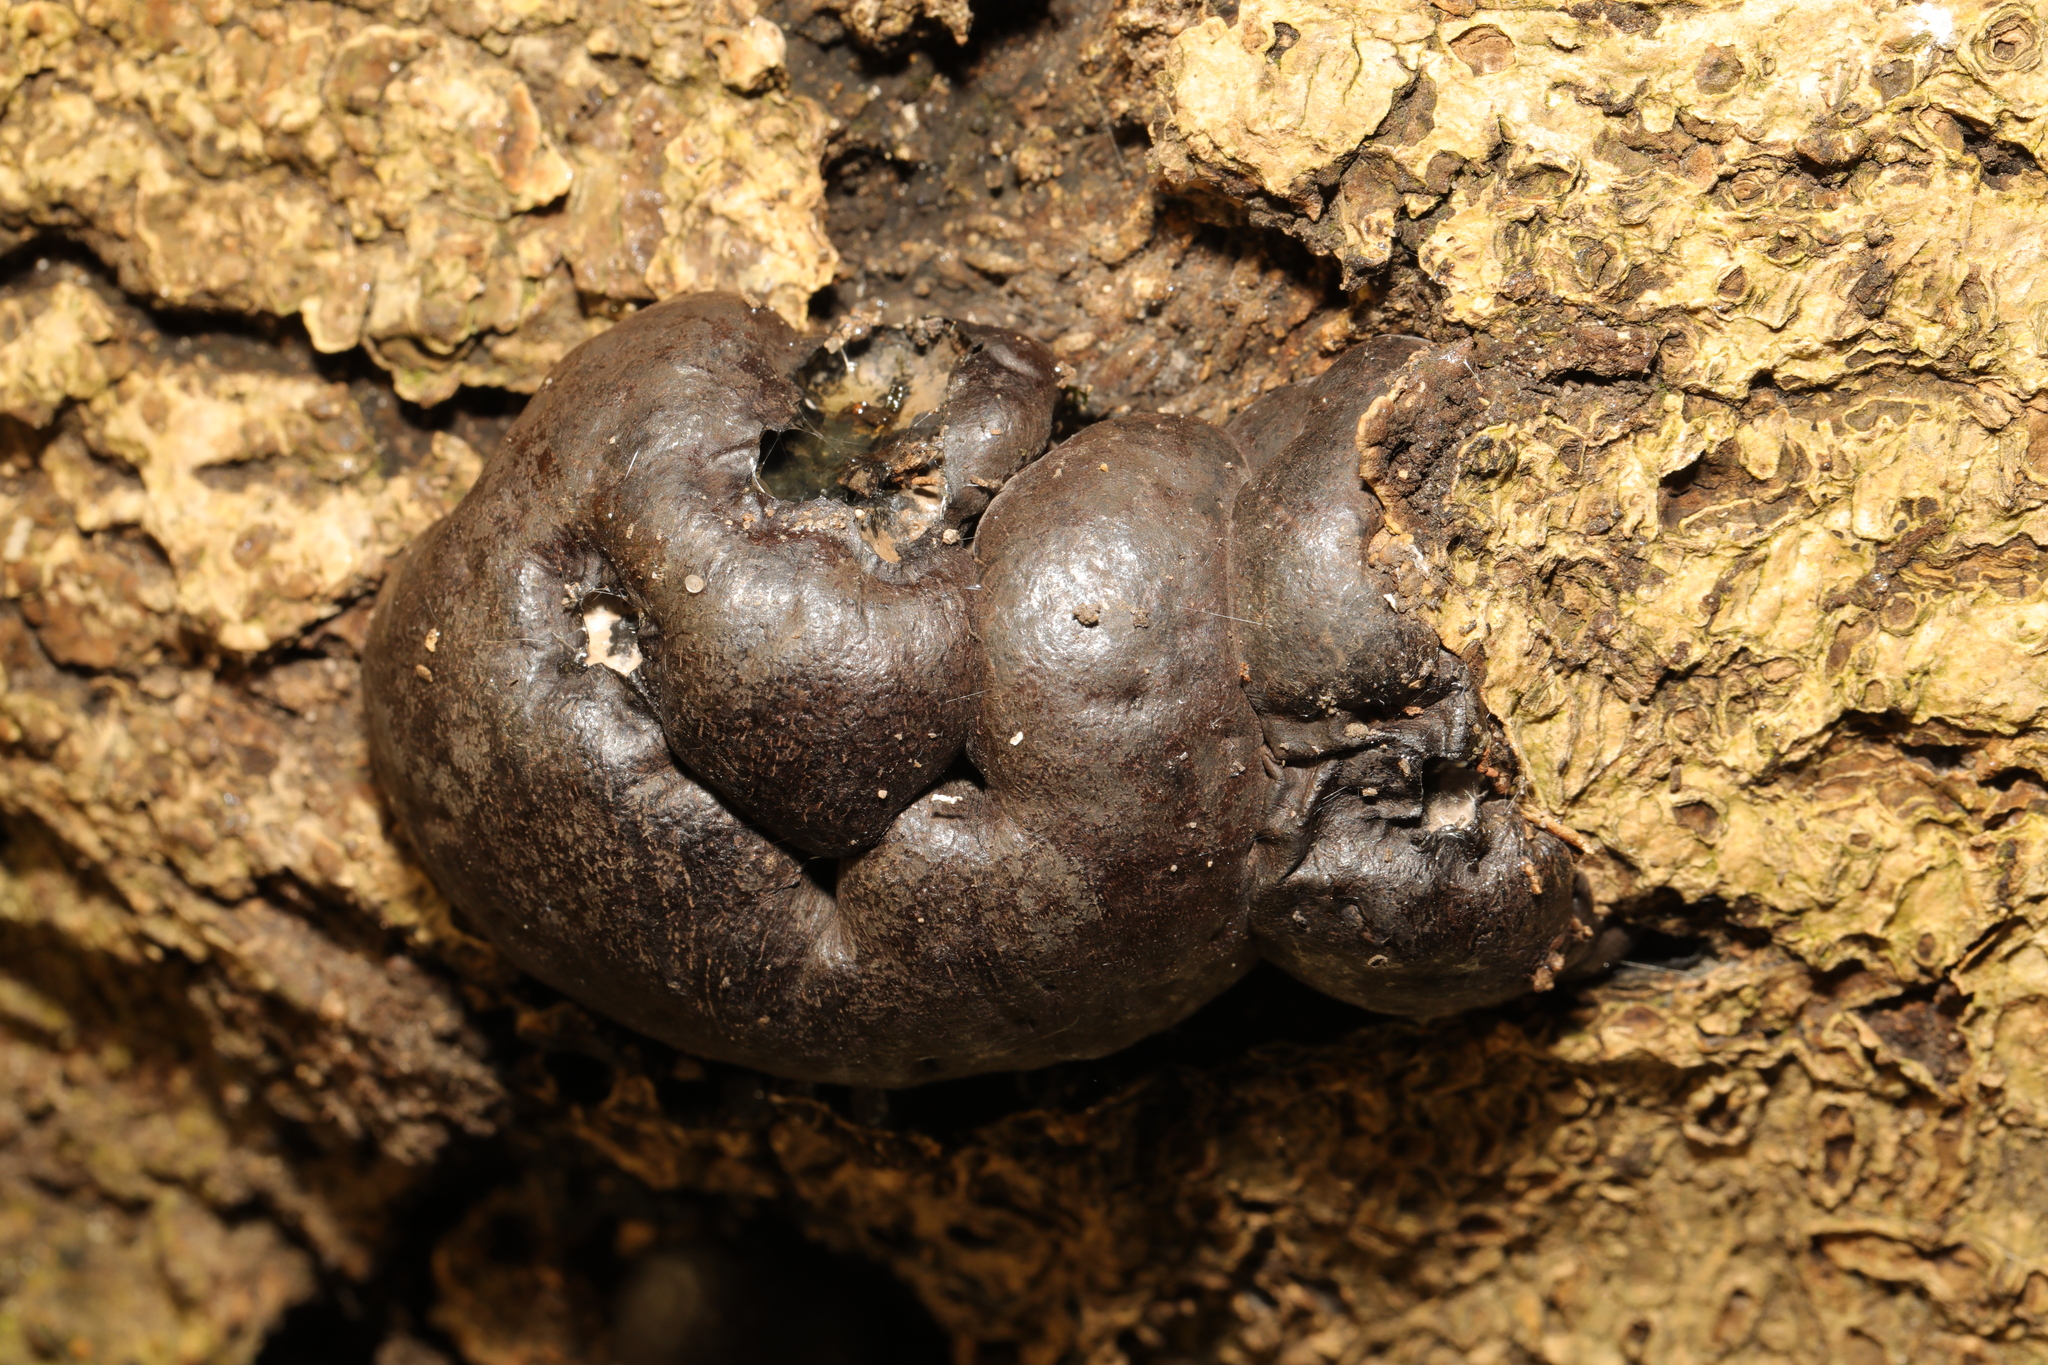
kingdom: Fungi
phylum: Ascomycota
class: Sordariomycetes
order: Xylariales
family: Hypoxylaceae
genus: Daldinia
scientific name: Daldinia concentrica
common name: Cramp balls
